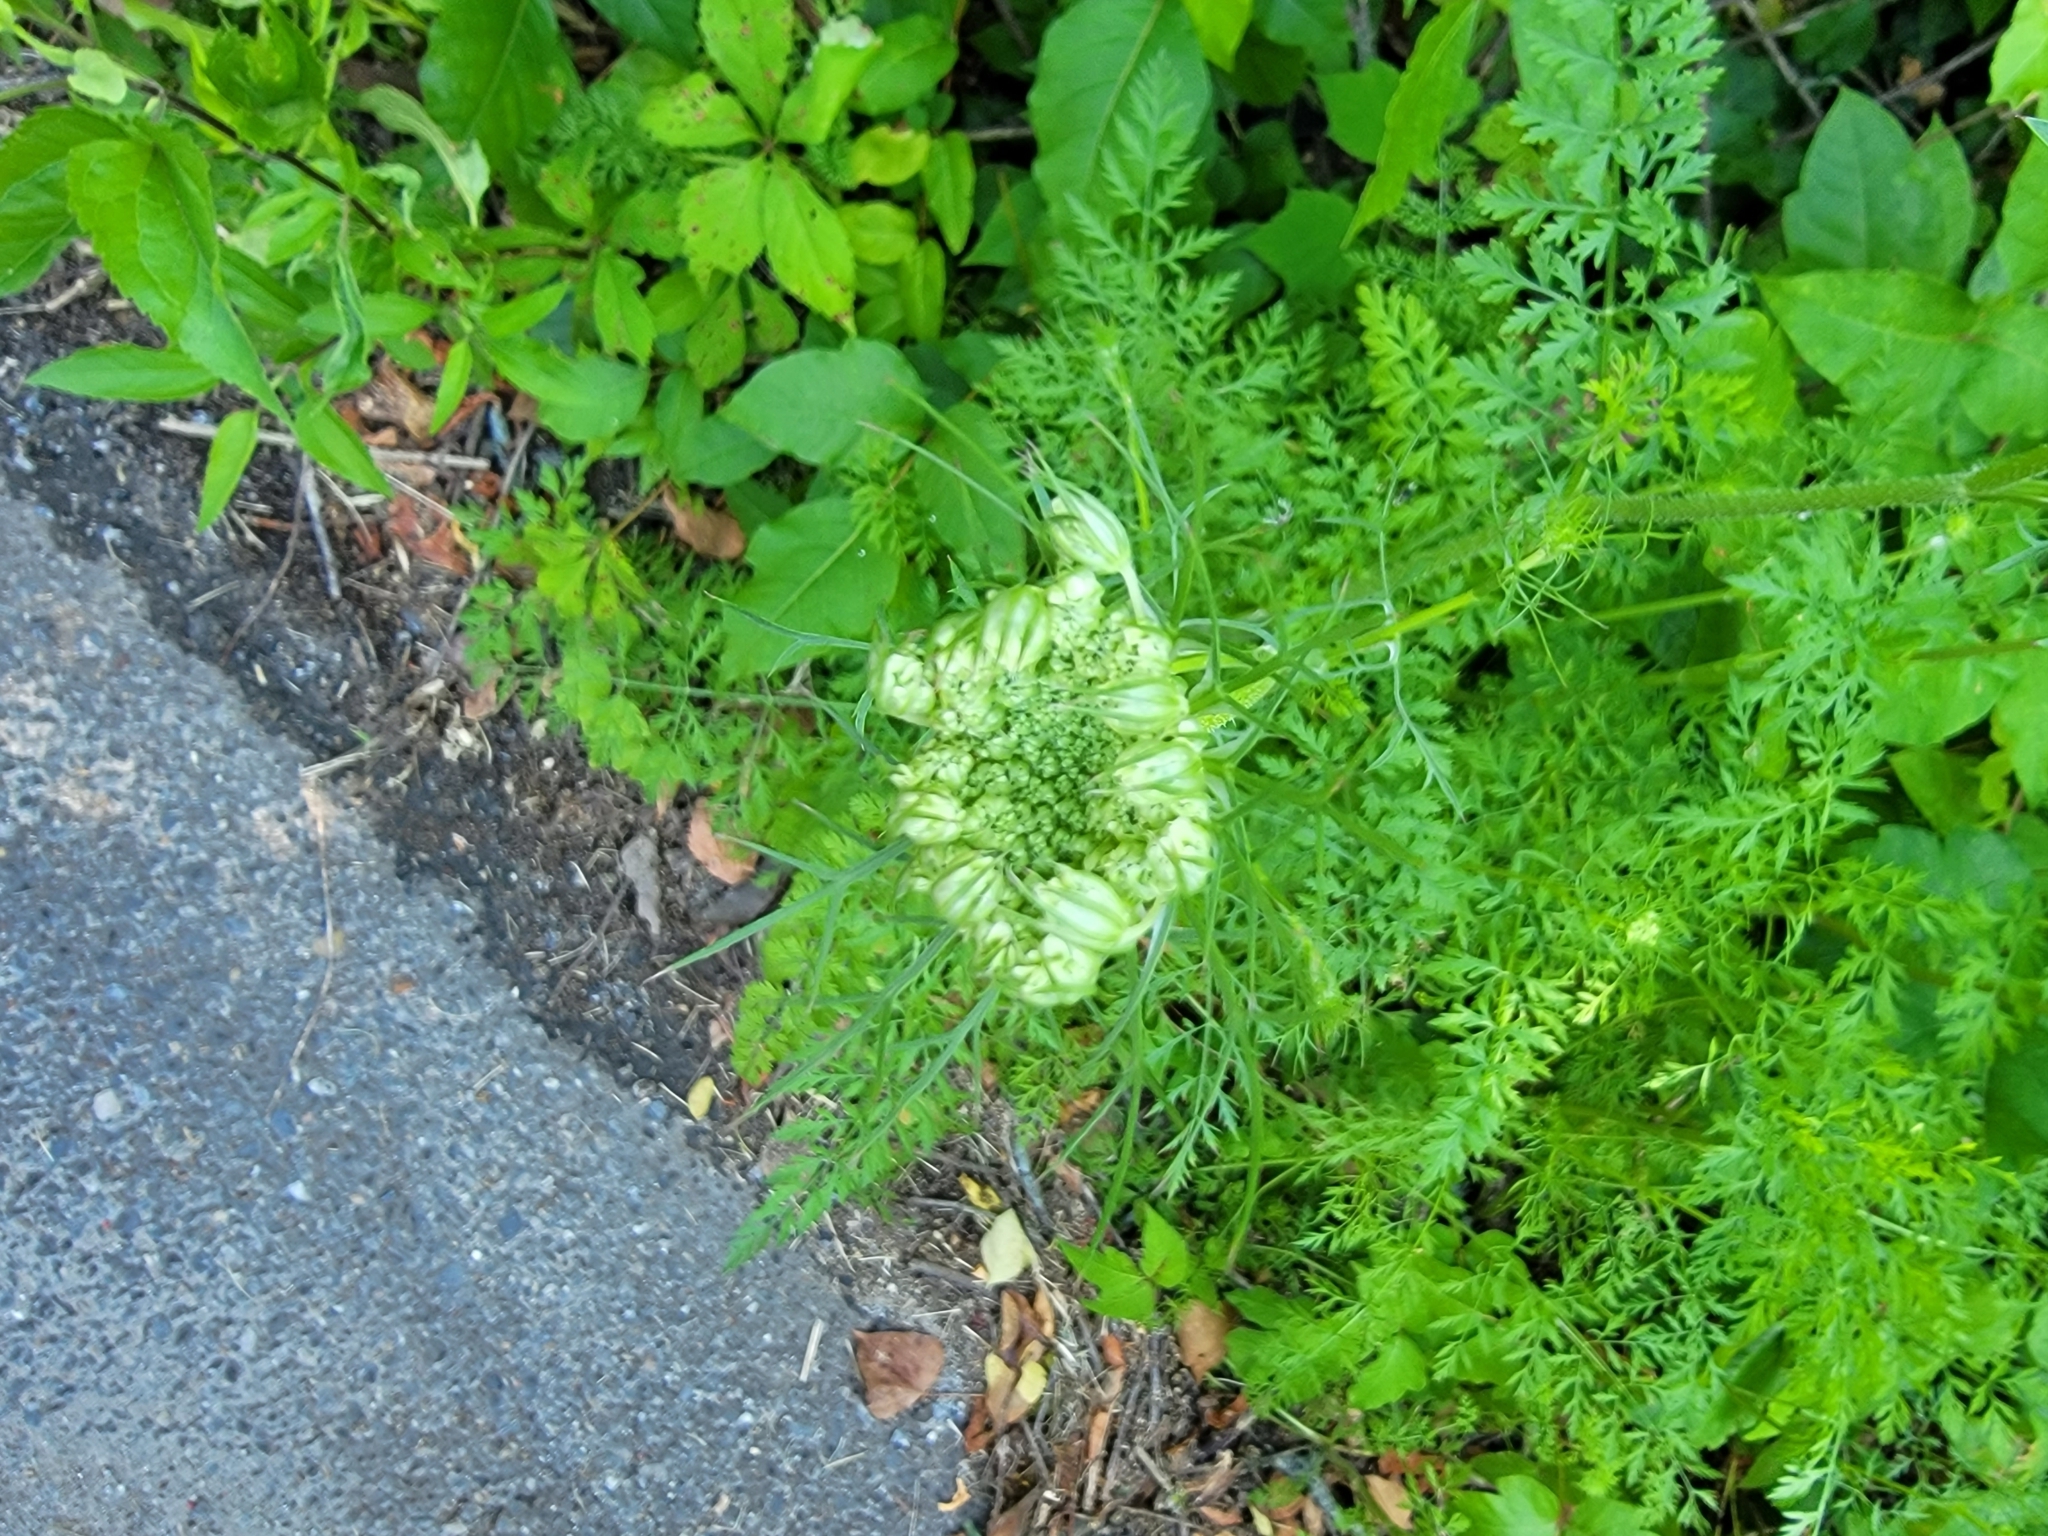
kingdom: Plantae
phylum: Tracheophyta
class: Magnoliopsida
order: Apiales
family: Apiaceae
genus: Daucus
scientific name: Daucus carota
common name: Wild carrot
